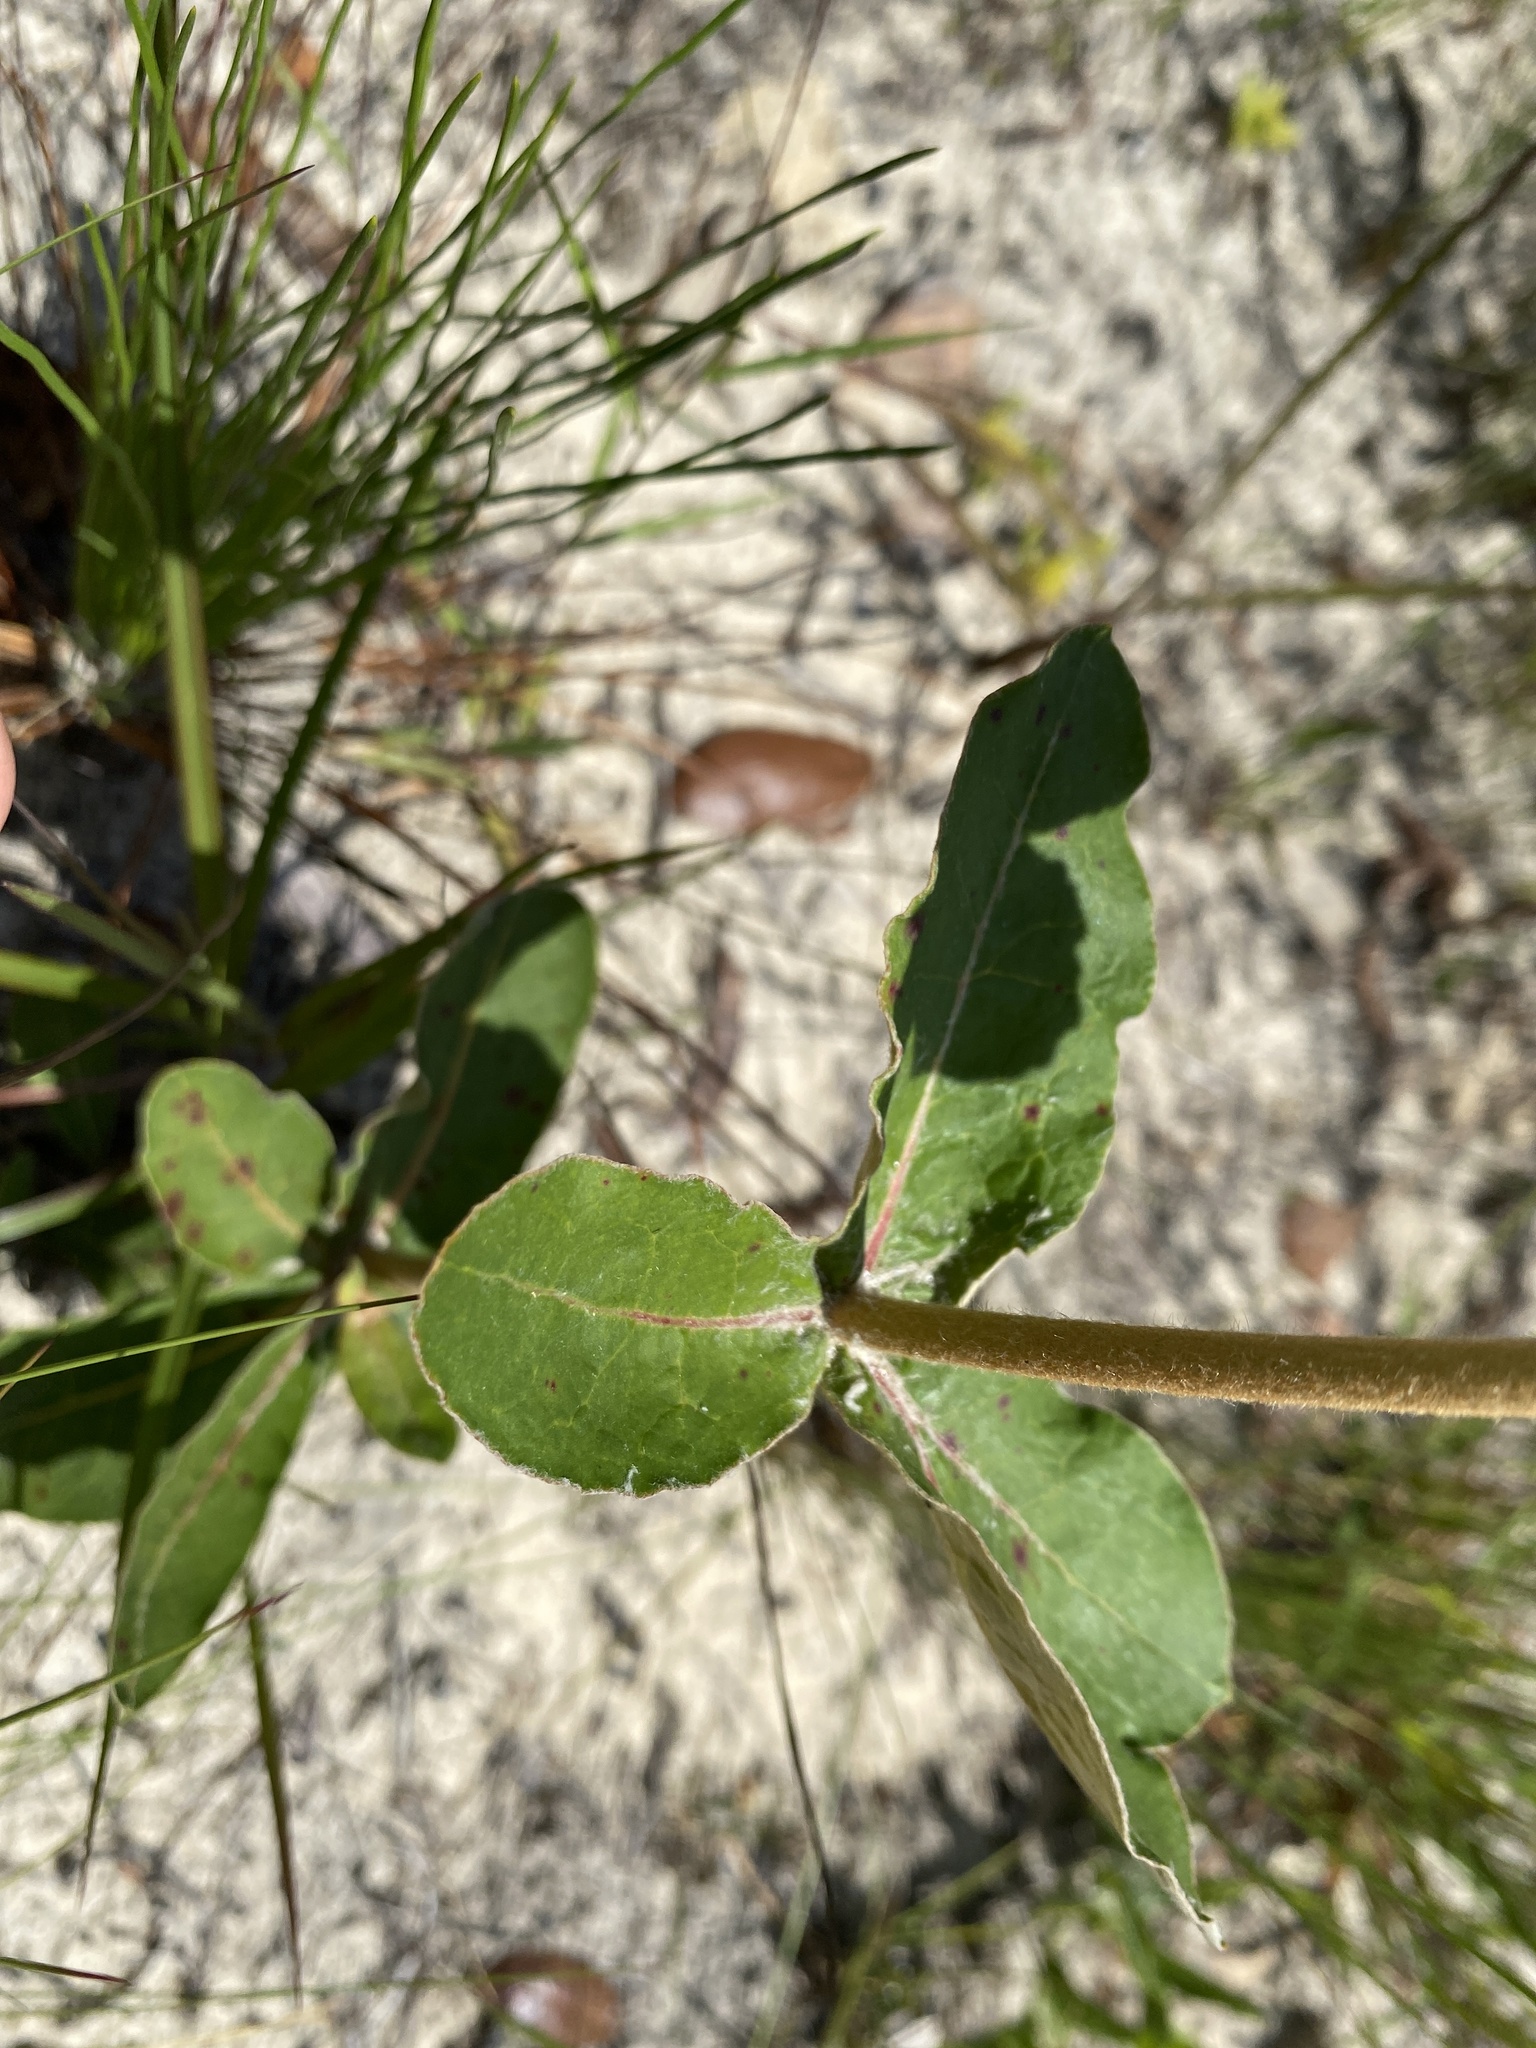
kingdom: Plantae
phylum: Tracheophyta
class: Magnoliopsida
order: Caryophyllales
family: Polygonaceae
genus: Eriogonum
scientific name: Eriogonum tomentosum
